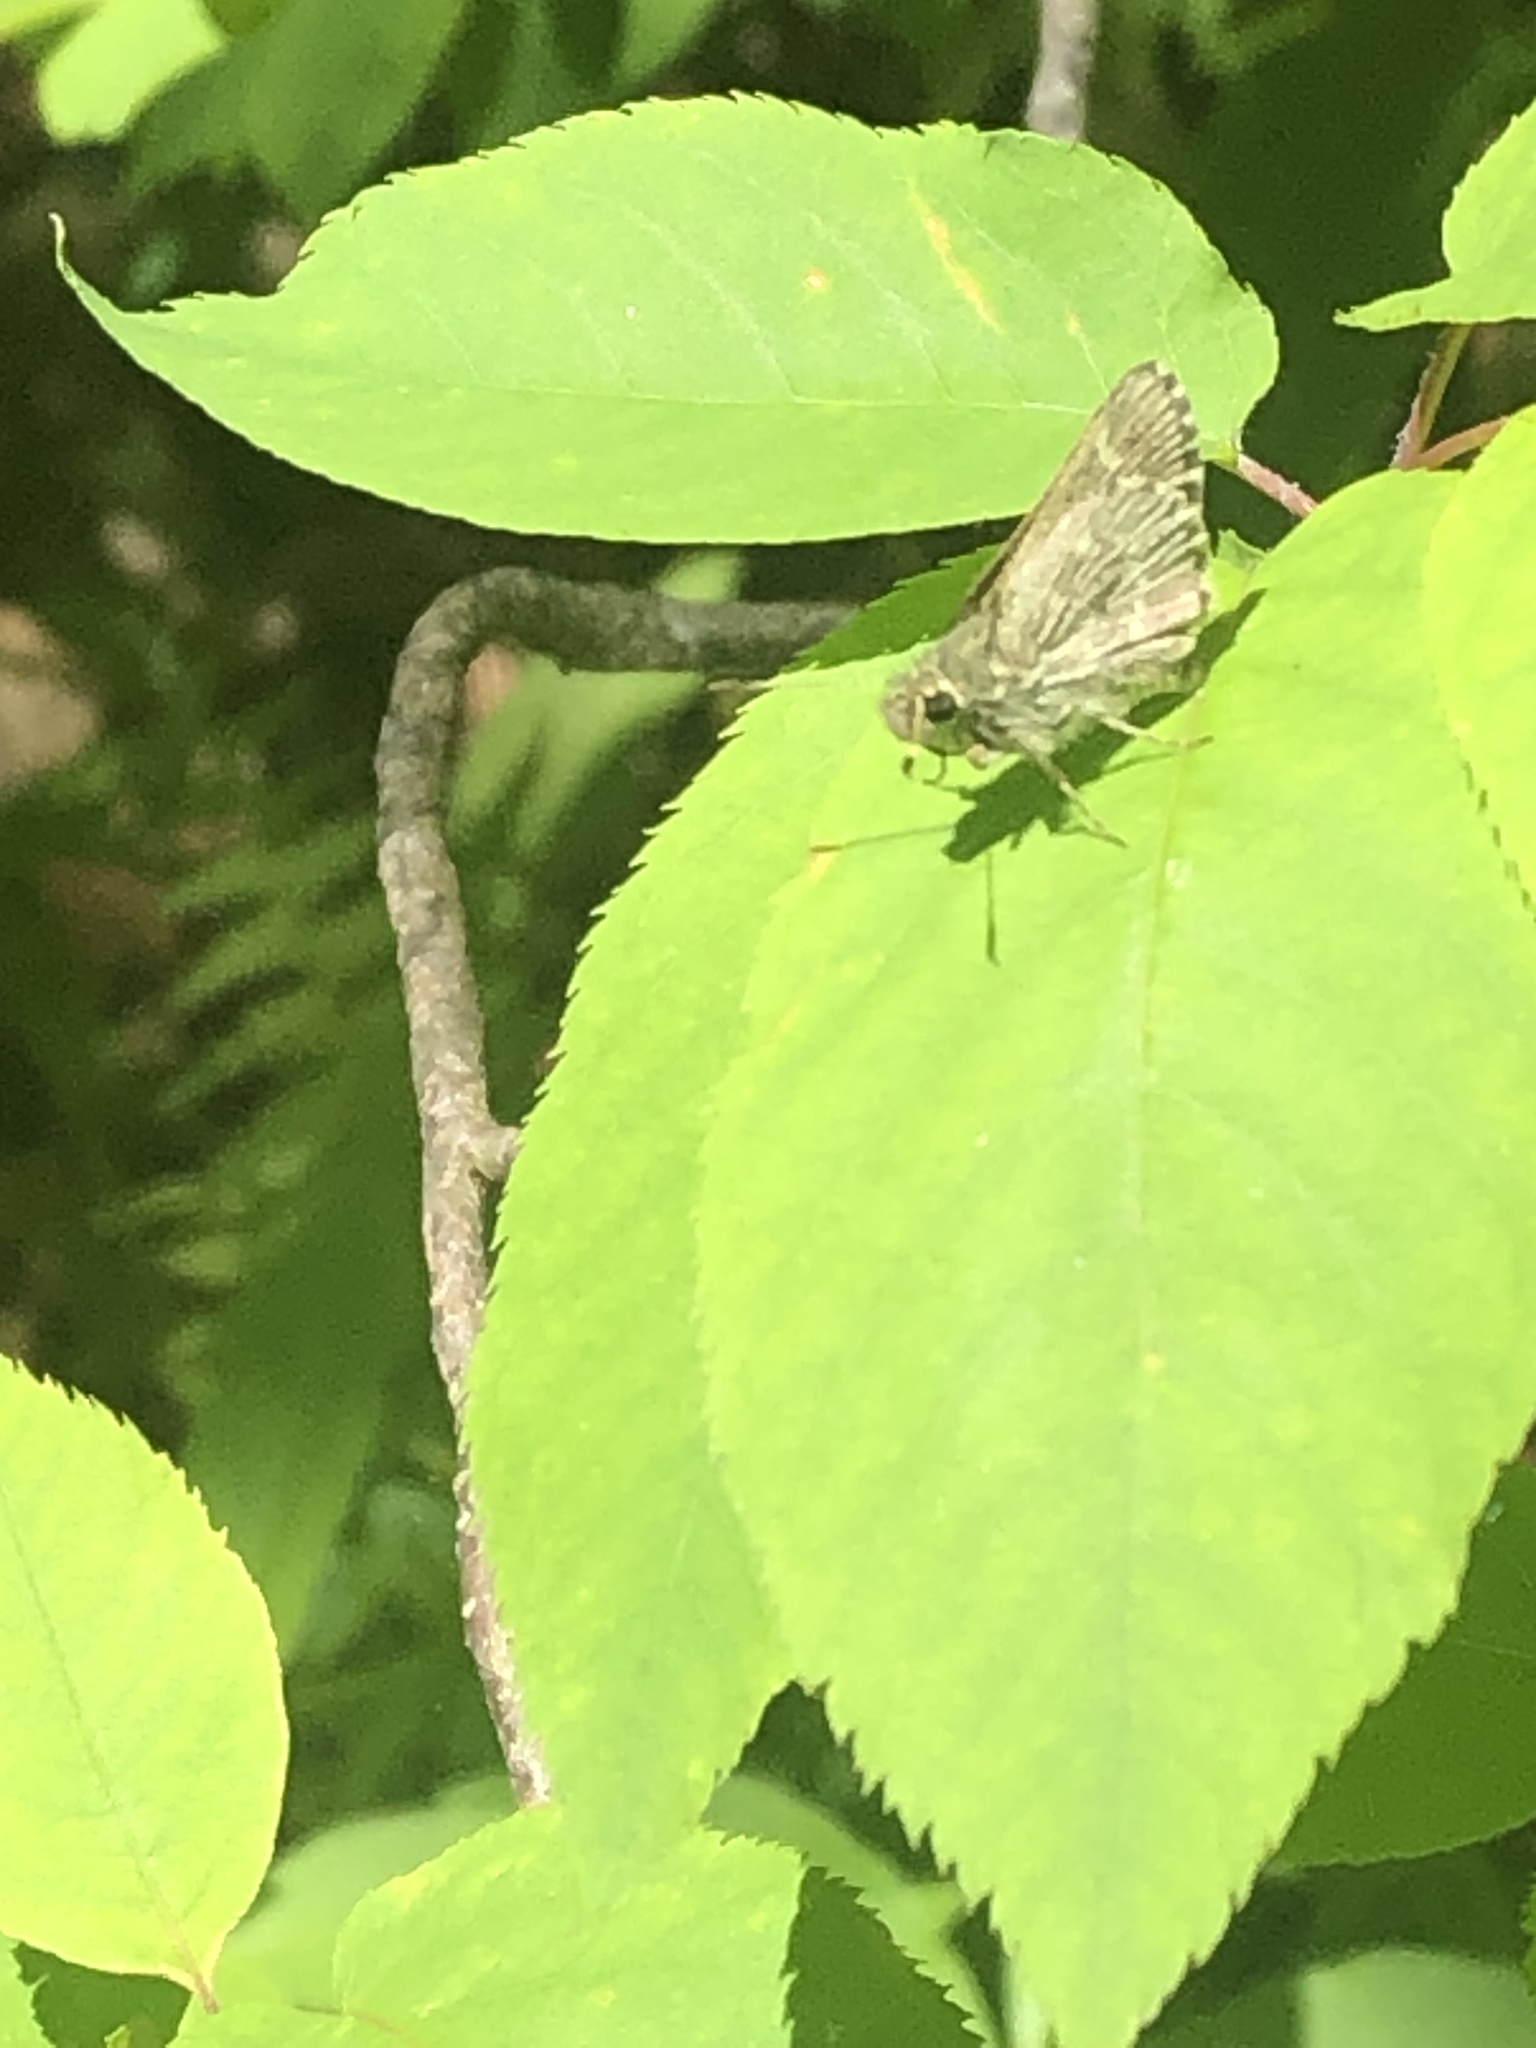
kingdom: Animalia
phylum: Arthropoda
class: Insecta
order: Lepidoptera
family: Hesperiidae
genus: Mastor
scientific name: Mastor hegon
